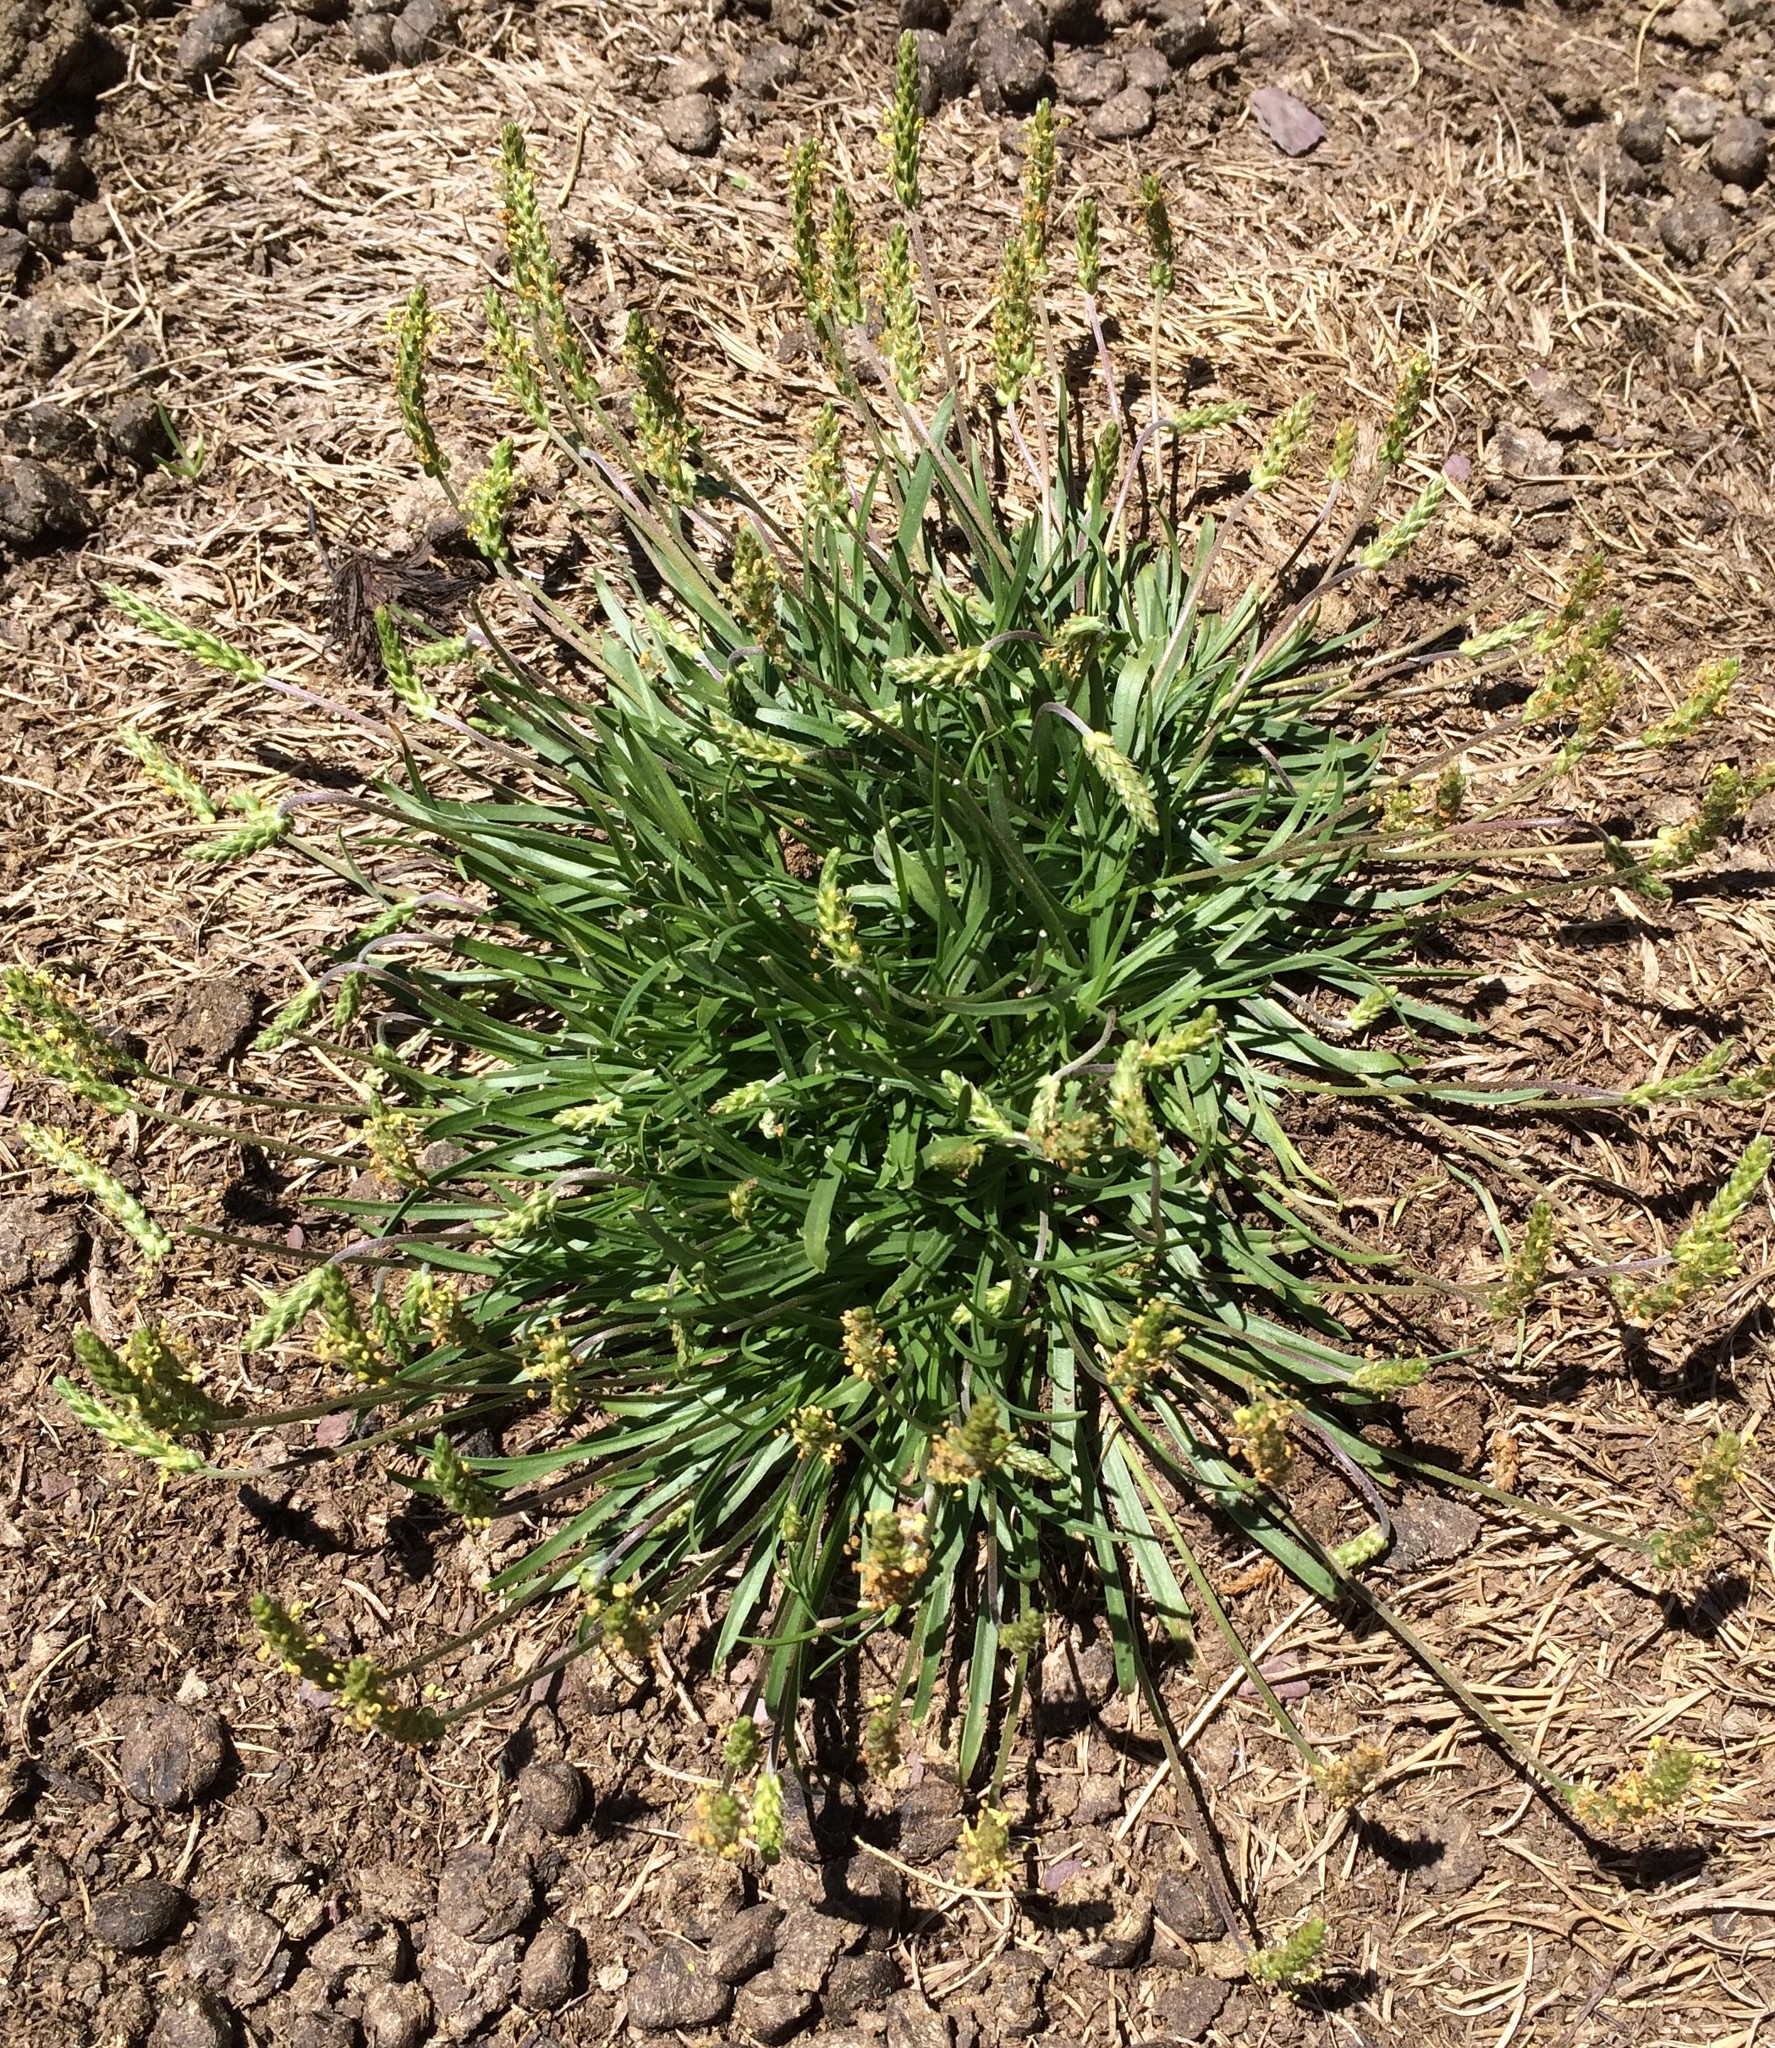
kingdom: Plantae
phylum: Tracheophyta
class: Magnoliopsida
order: Lamiales
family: Plantaginaceae
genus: Plantago
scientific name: Plantago maritima
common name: Sea plantain
